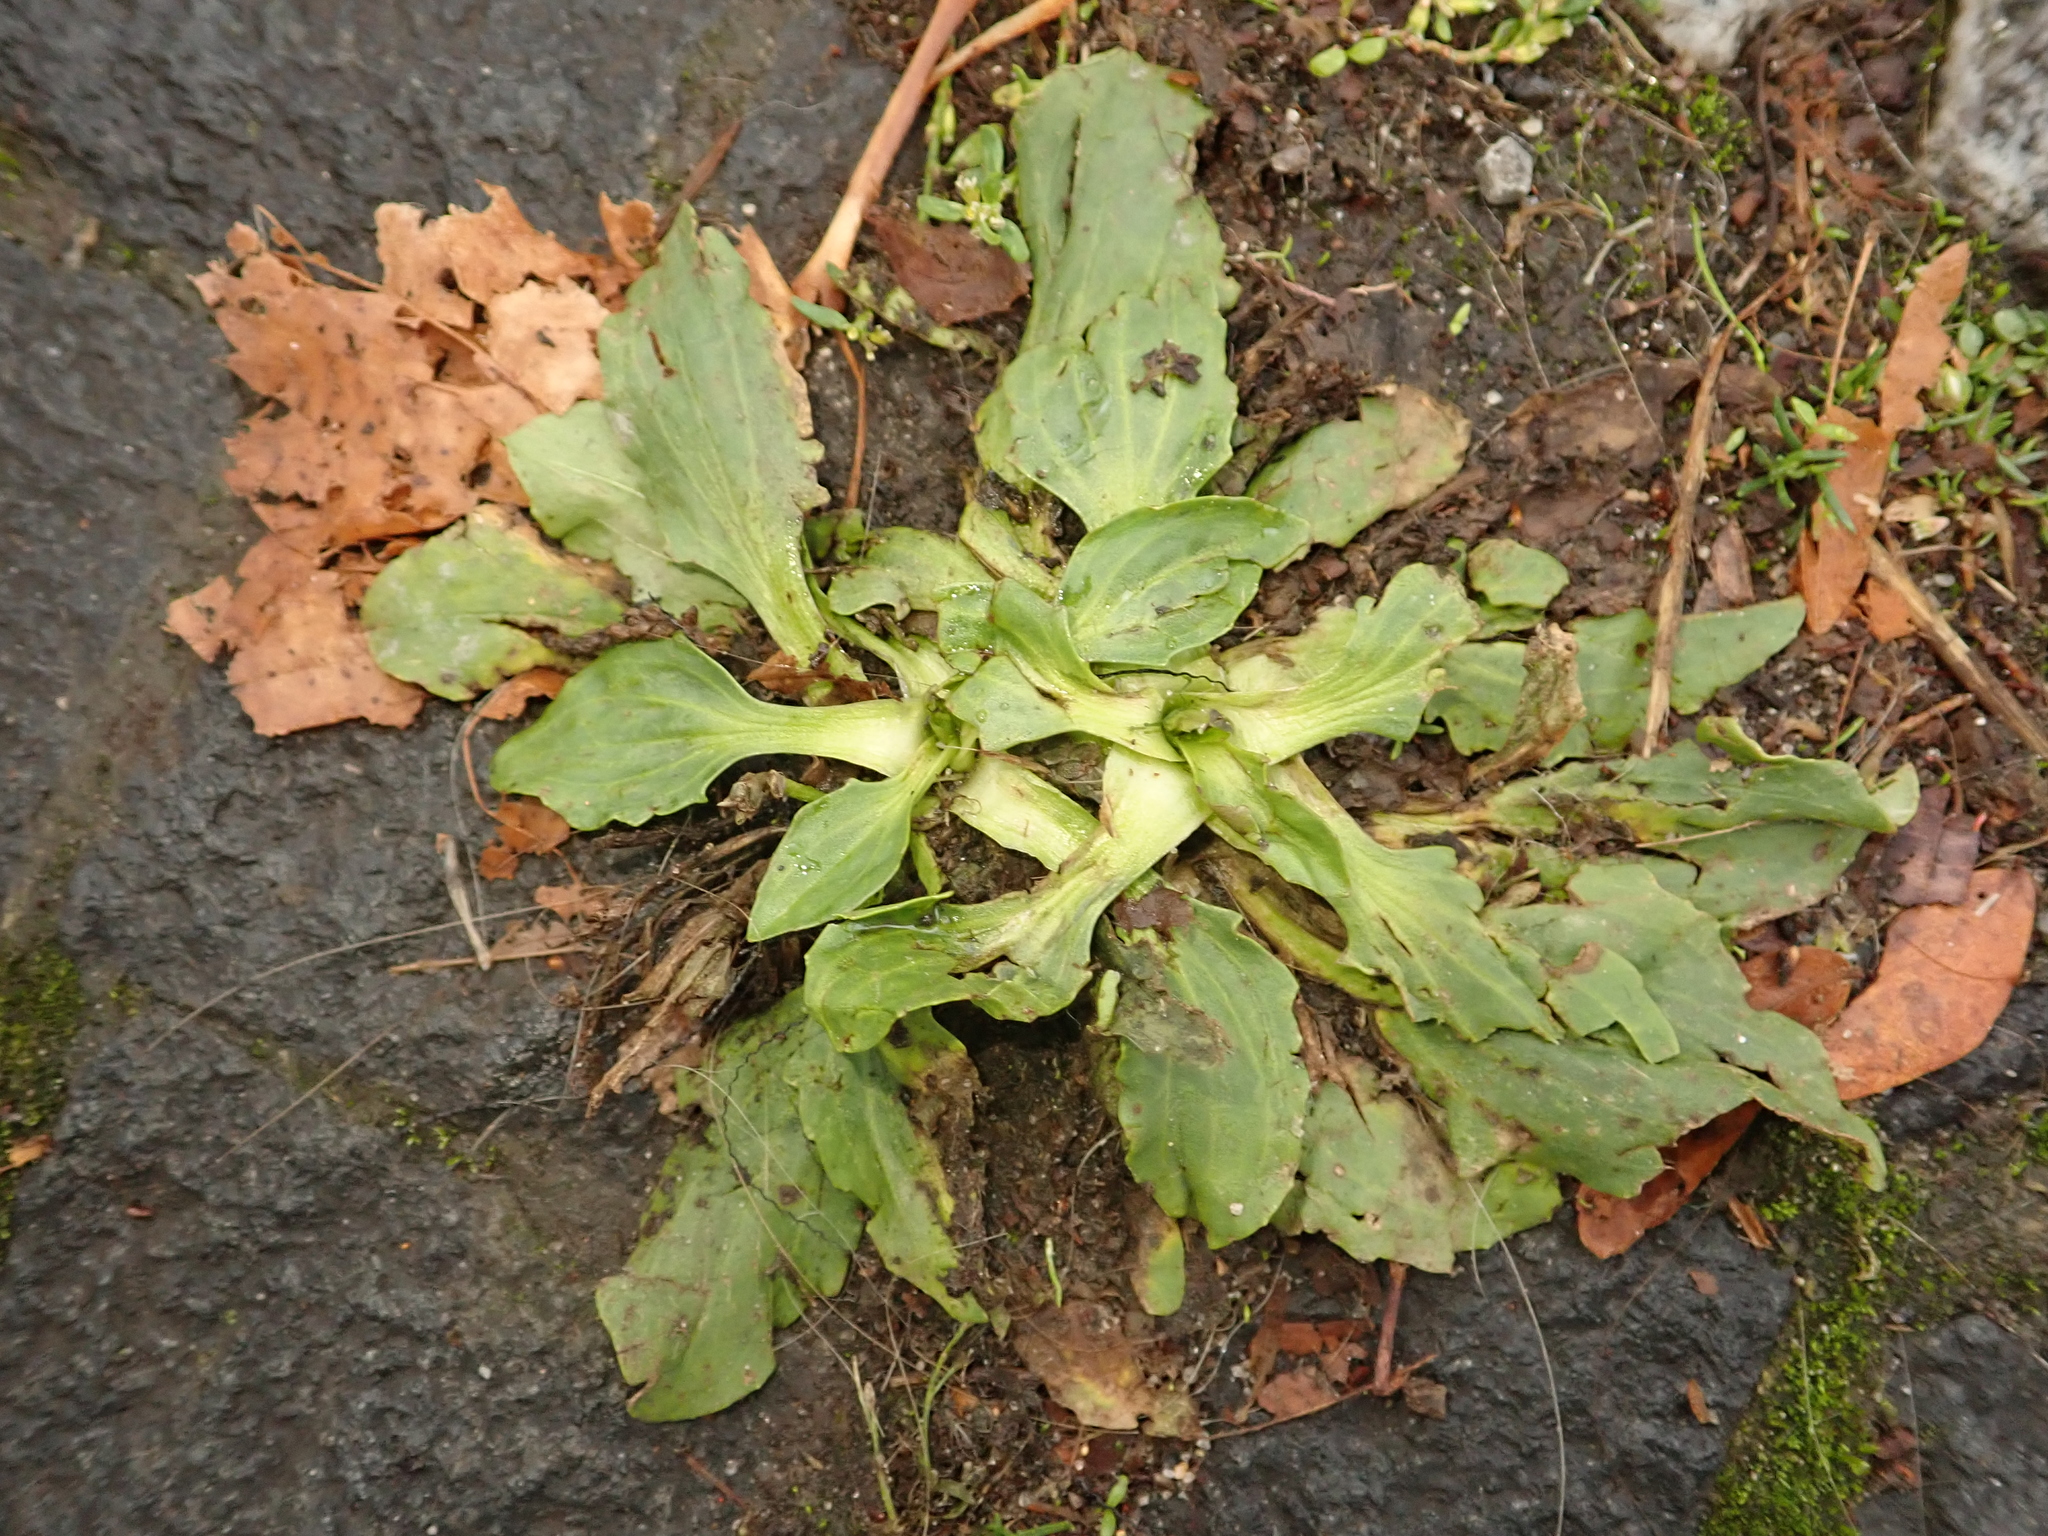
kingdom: Plantae
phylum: Tracheophyta
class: Magnoliopsida
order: Lamiales
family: Plantaginaceae
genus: Plantago
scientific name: Plantago major
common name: Common plantain
